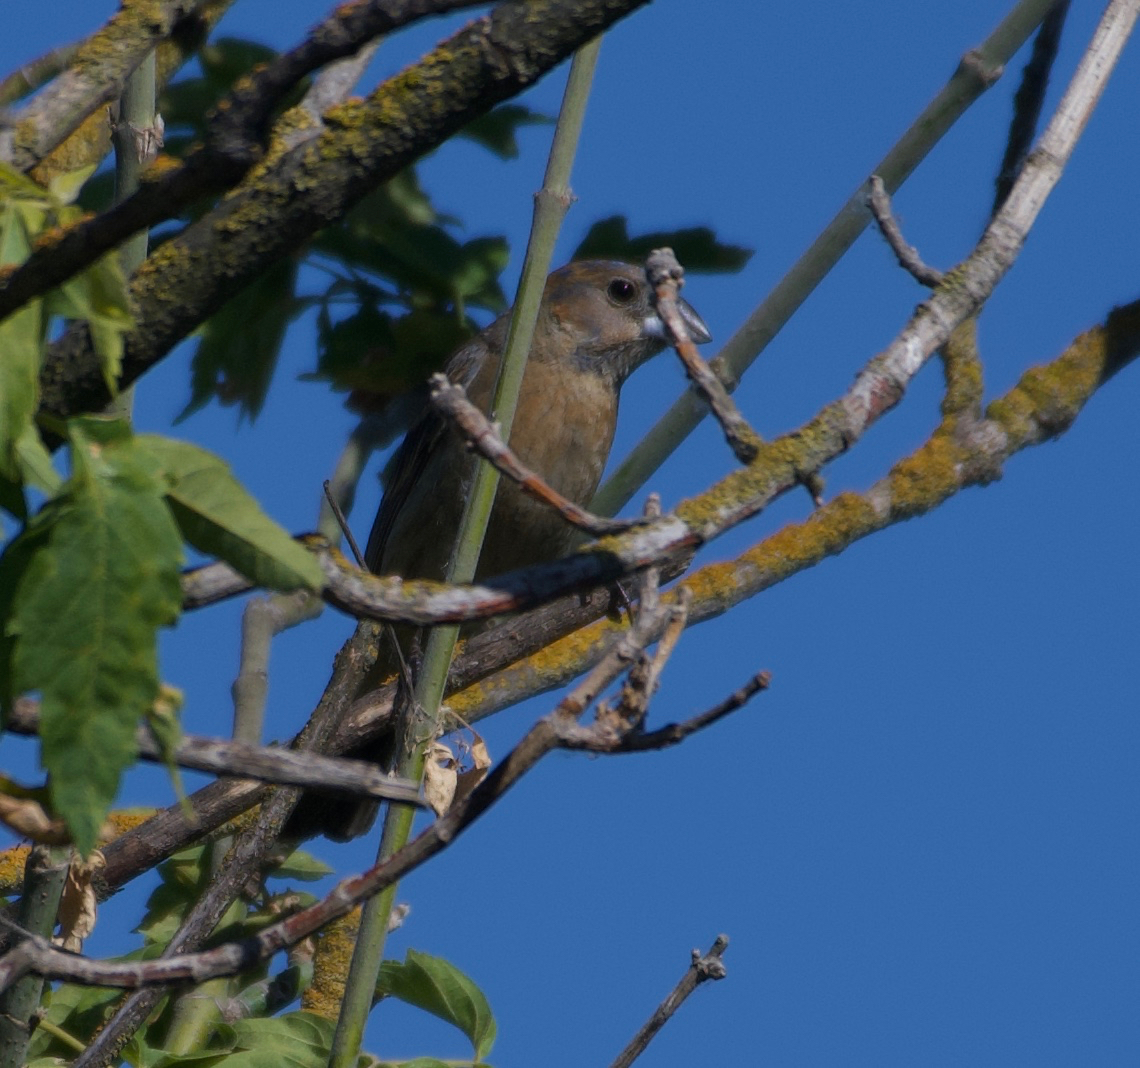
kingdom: Animalia
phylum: Chordata
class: Aves
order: Passeriformes
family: Cardinalidae
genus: Passerina
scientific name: Passerina caerulea
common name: Blue grosbeak
